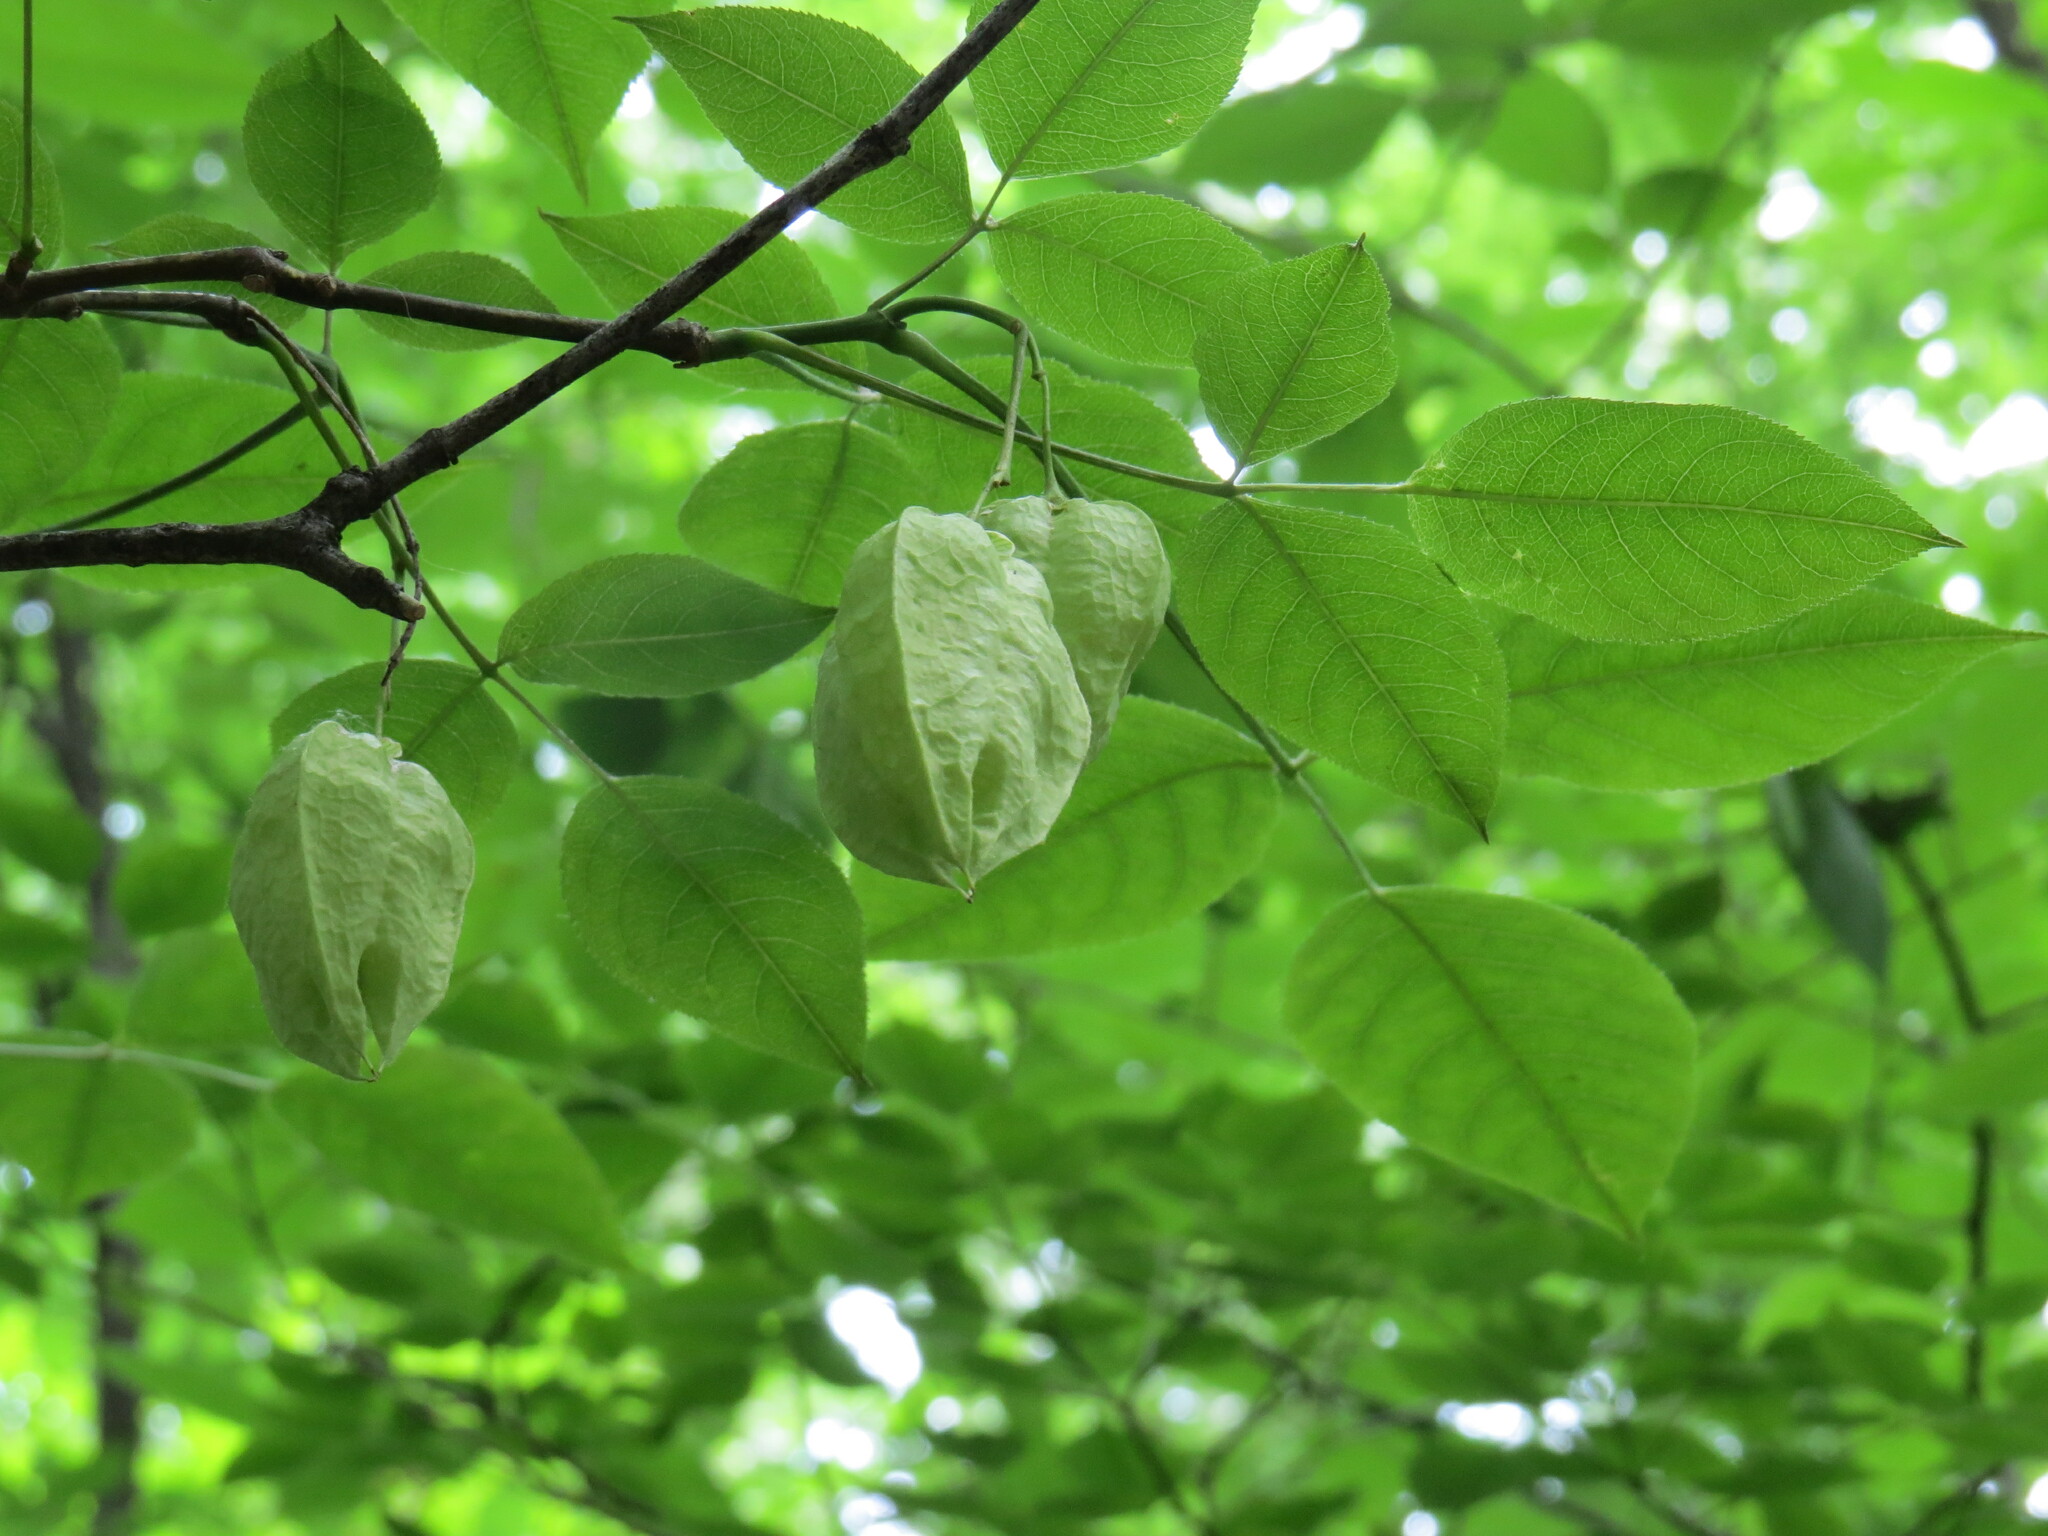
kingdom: Plantae
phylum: Tracheophyta
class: Magnoliopsida
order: Crossosomatales
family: Staphyleaceae
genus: Staphylea
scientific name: Staphylea trifolia
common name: American bladdernut
